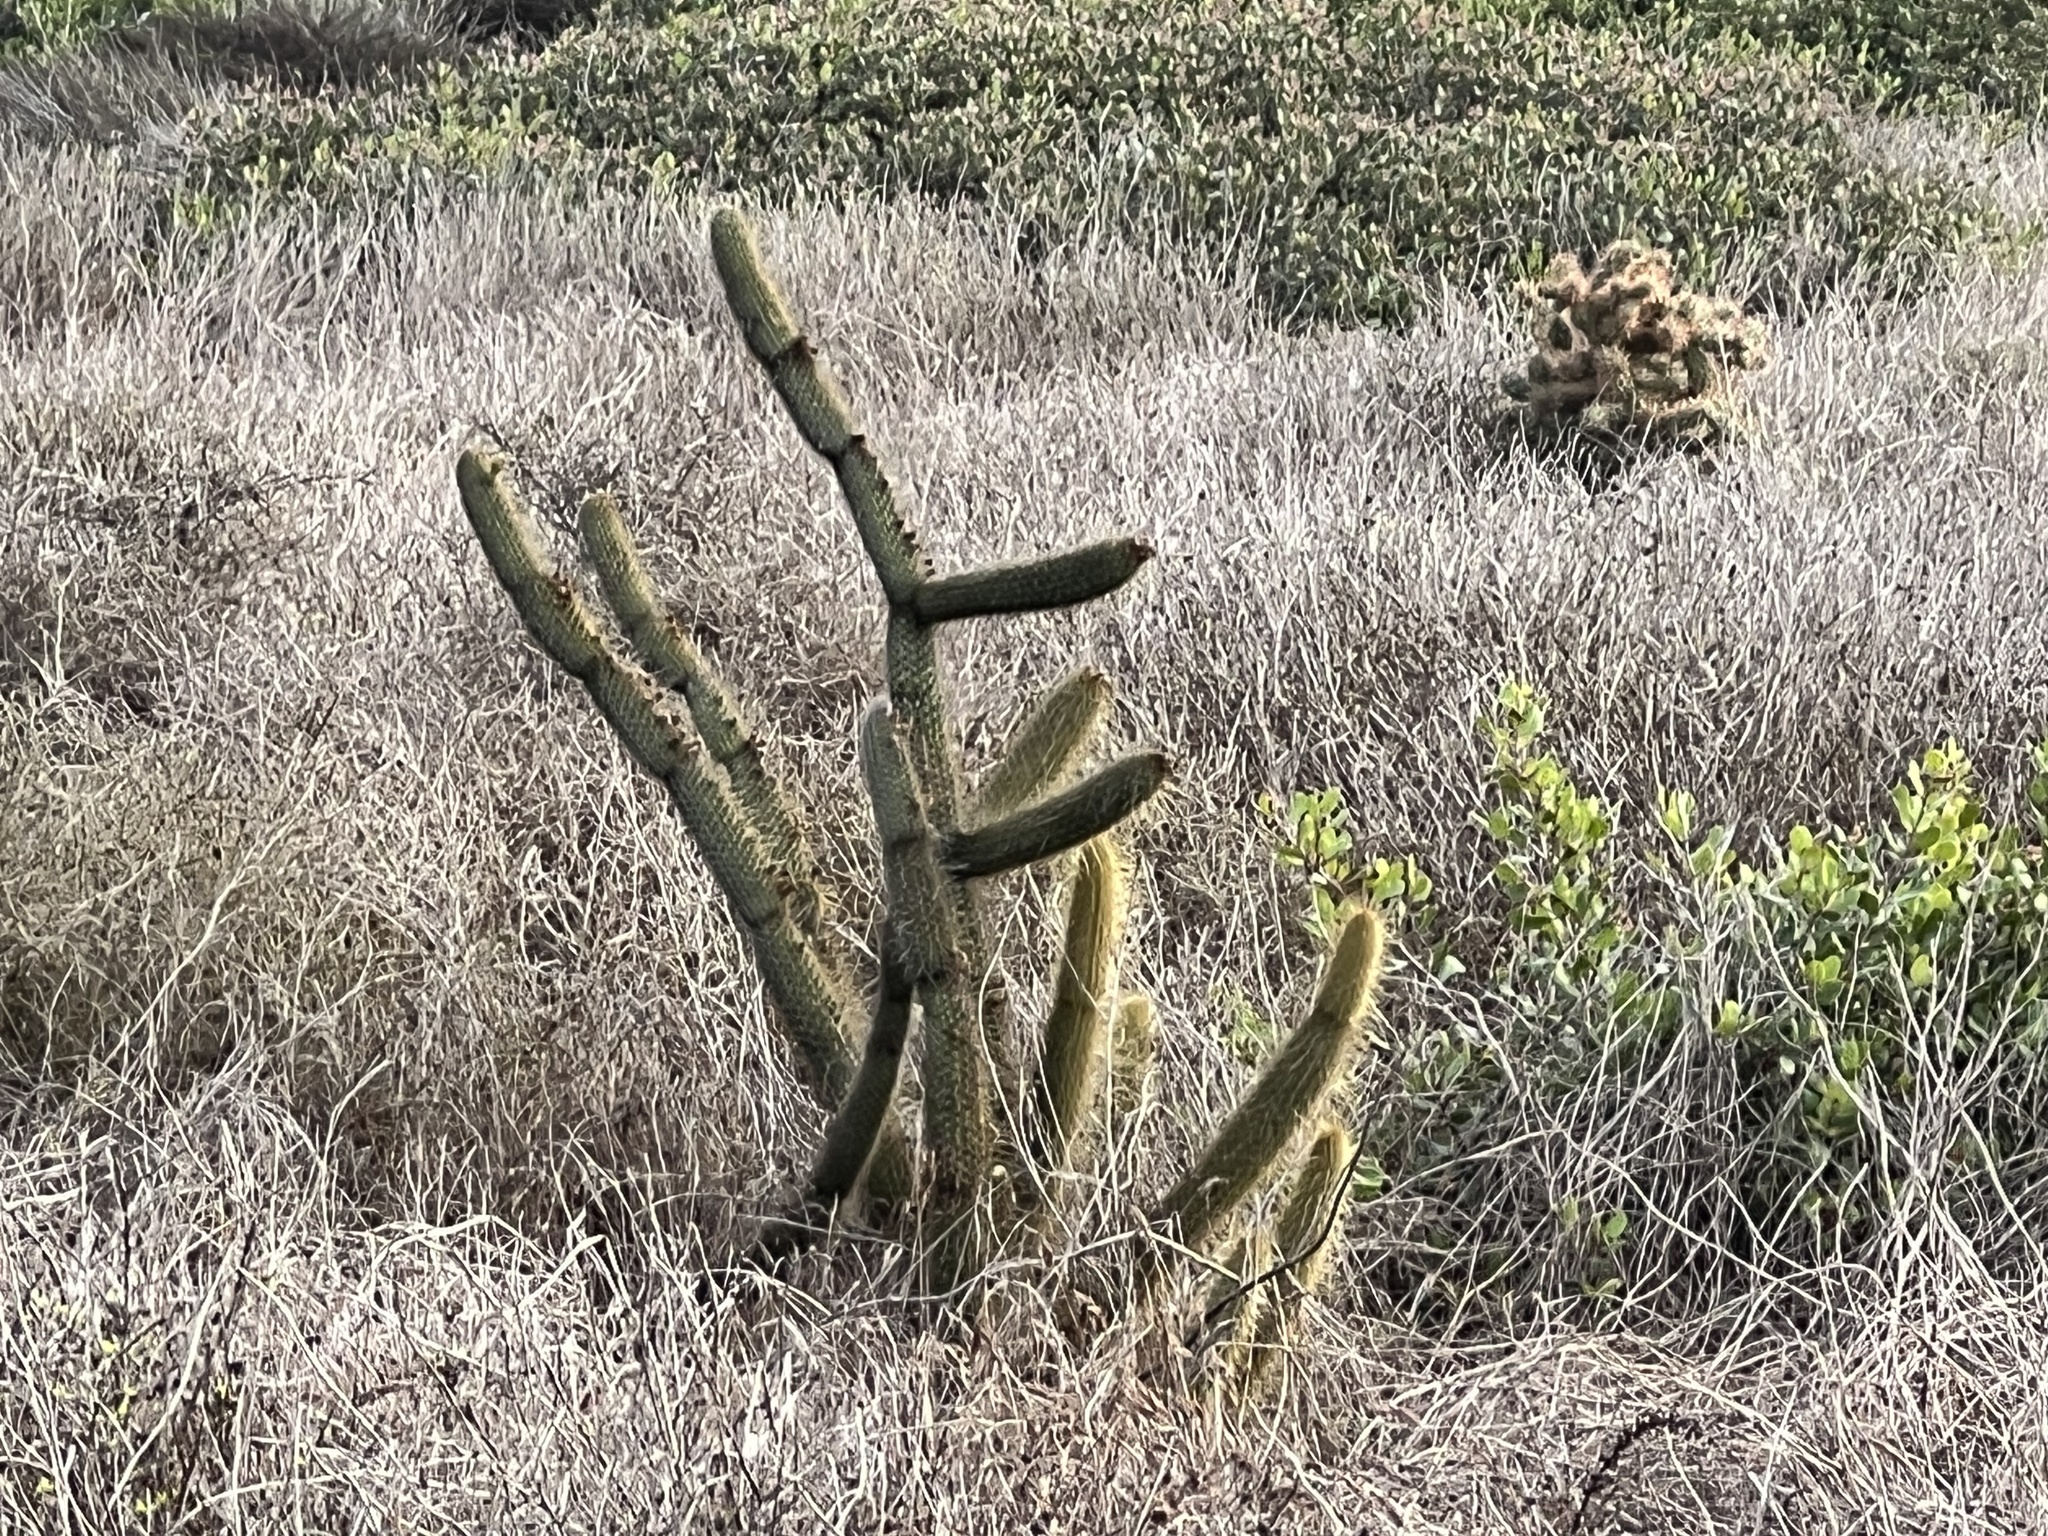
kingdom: Plantae
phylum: Tracheophyta
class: Magnoliopsida
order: Caryophyllales
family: Cactaceae
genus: Bergerocactus
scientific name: Bergerocactus emoryi
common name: Golden snakecactus
